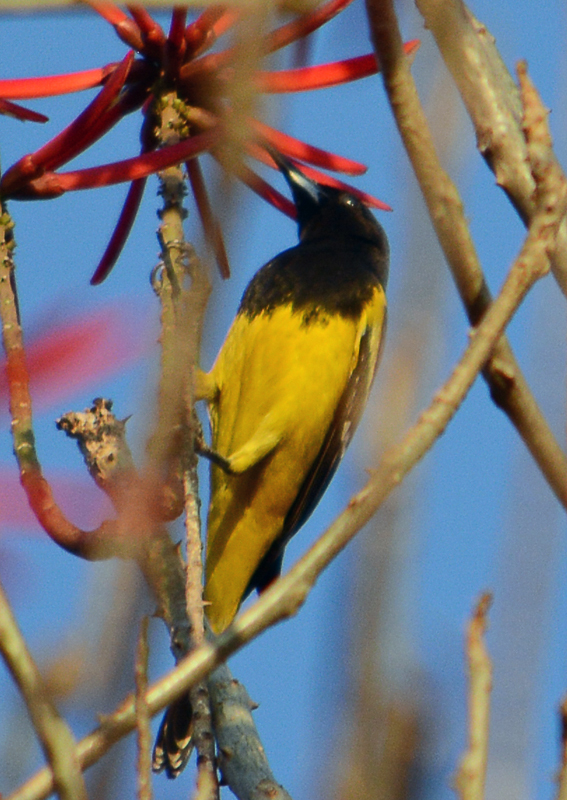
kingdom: Animalia
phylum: Chordata
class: Aves
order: Passeriformes
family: Icteridae
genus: Icterus
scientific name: Icterus parisorum
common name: Scott's oriole
